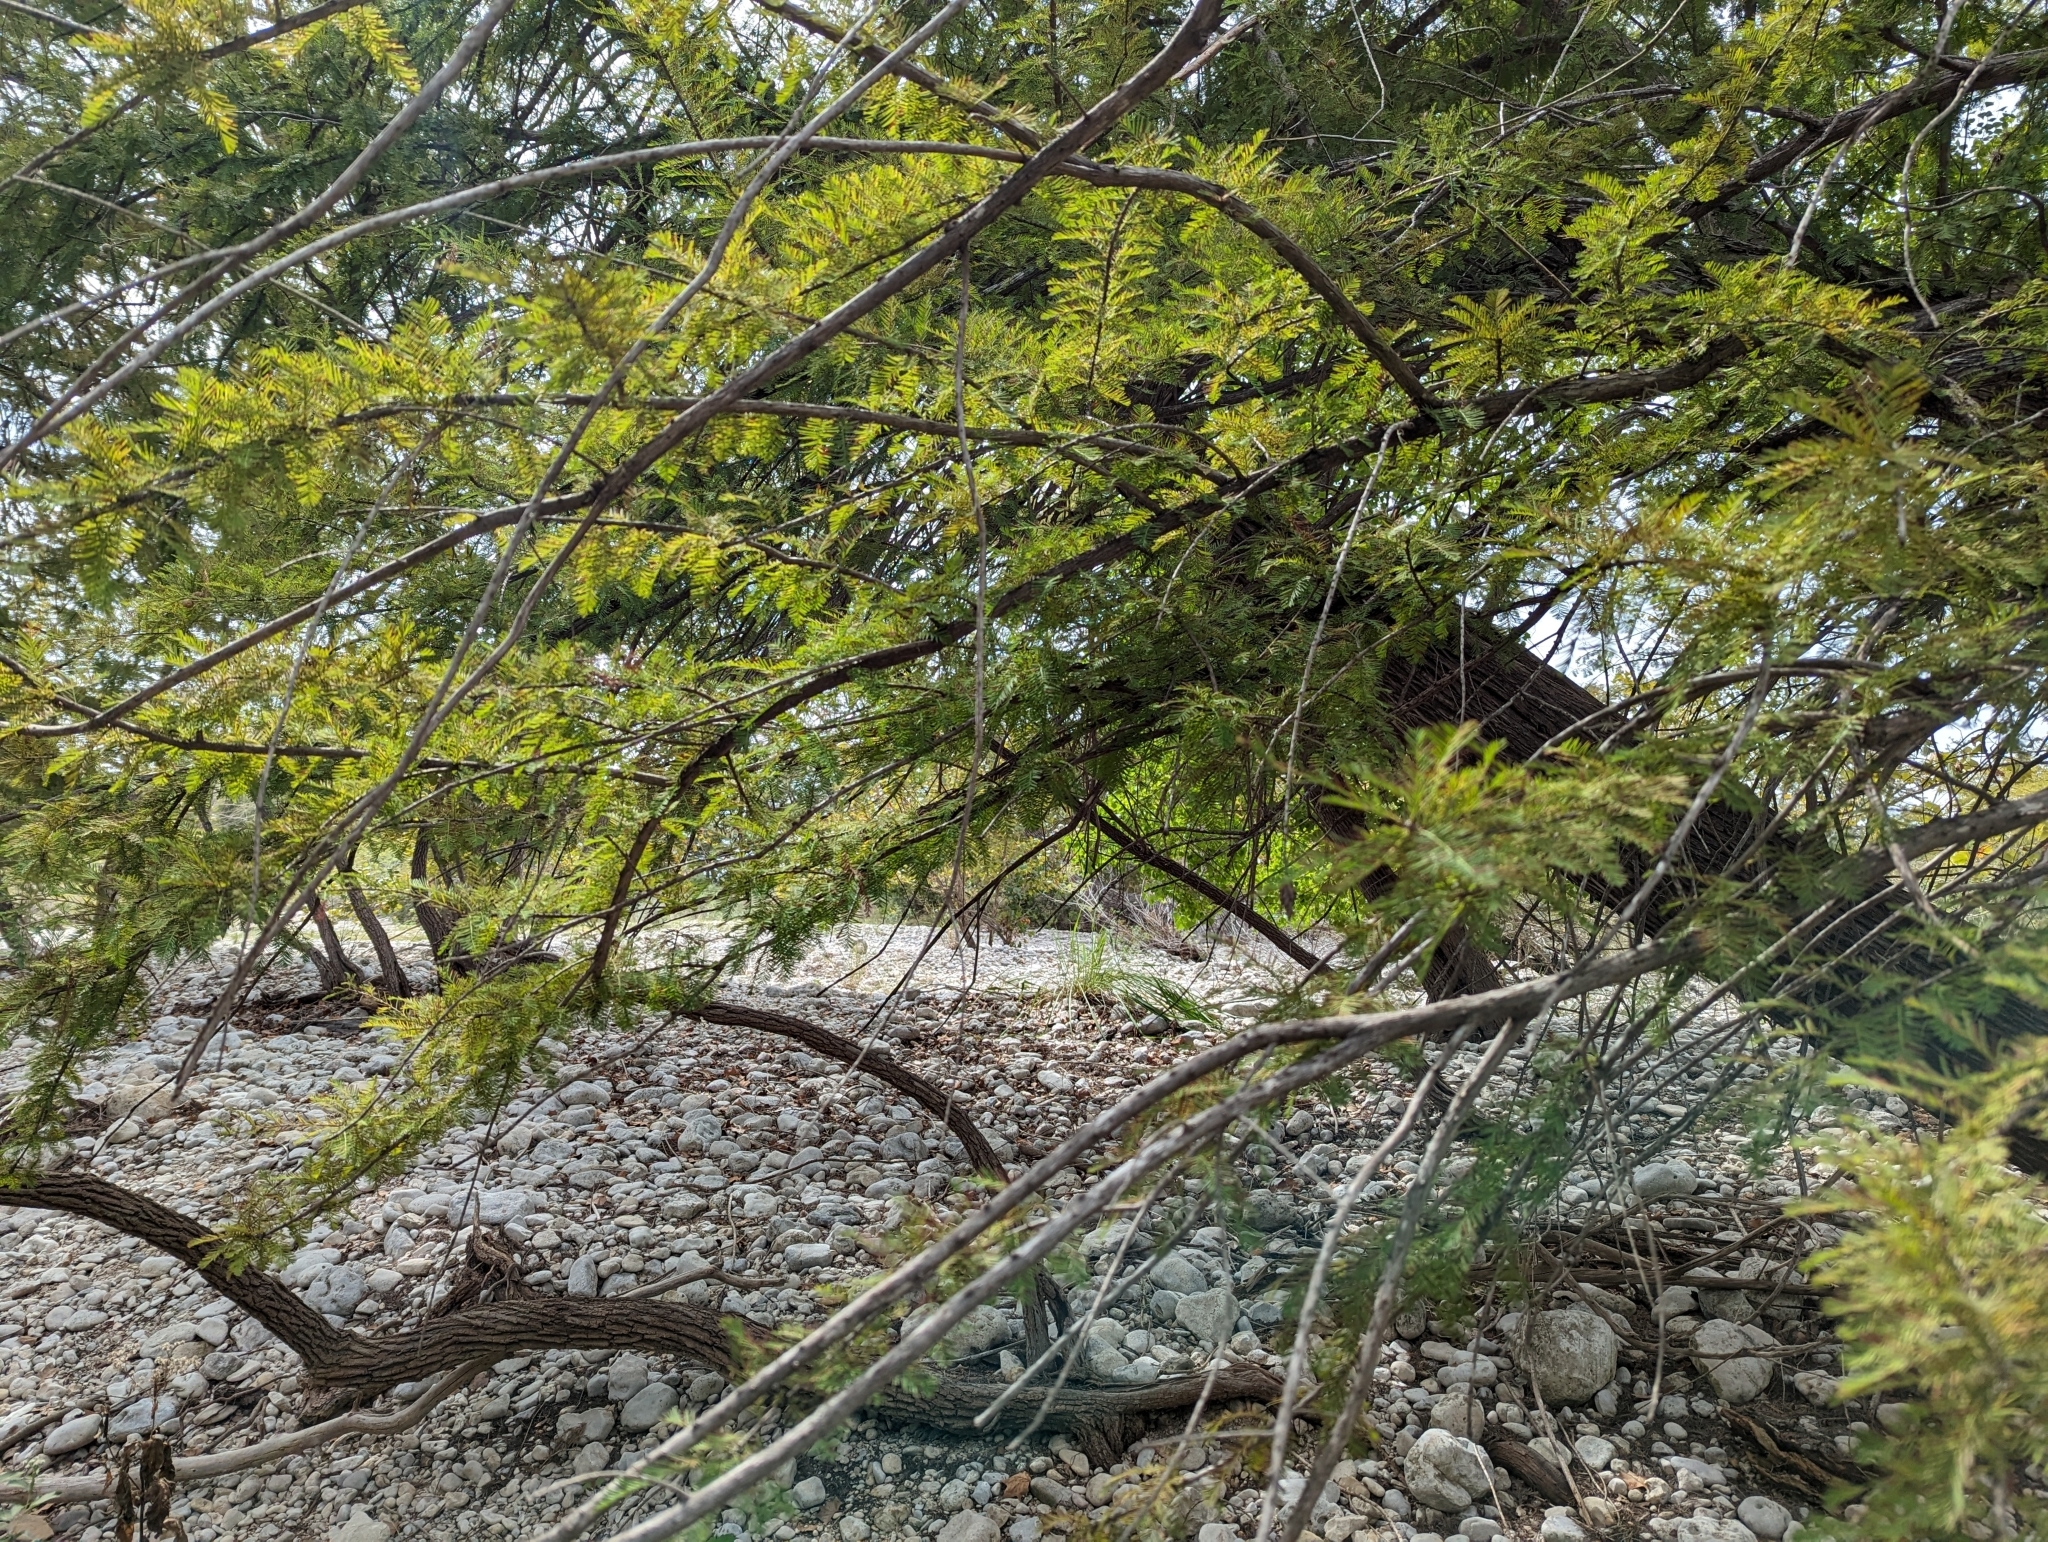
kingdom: Plantae
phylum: Tracheophyta
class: Pinopsida
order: Pinales
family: Cupressaceae
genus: Taxodium
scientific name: Taxodium distichum
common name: Bald cypress
